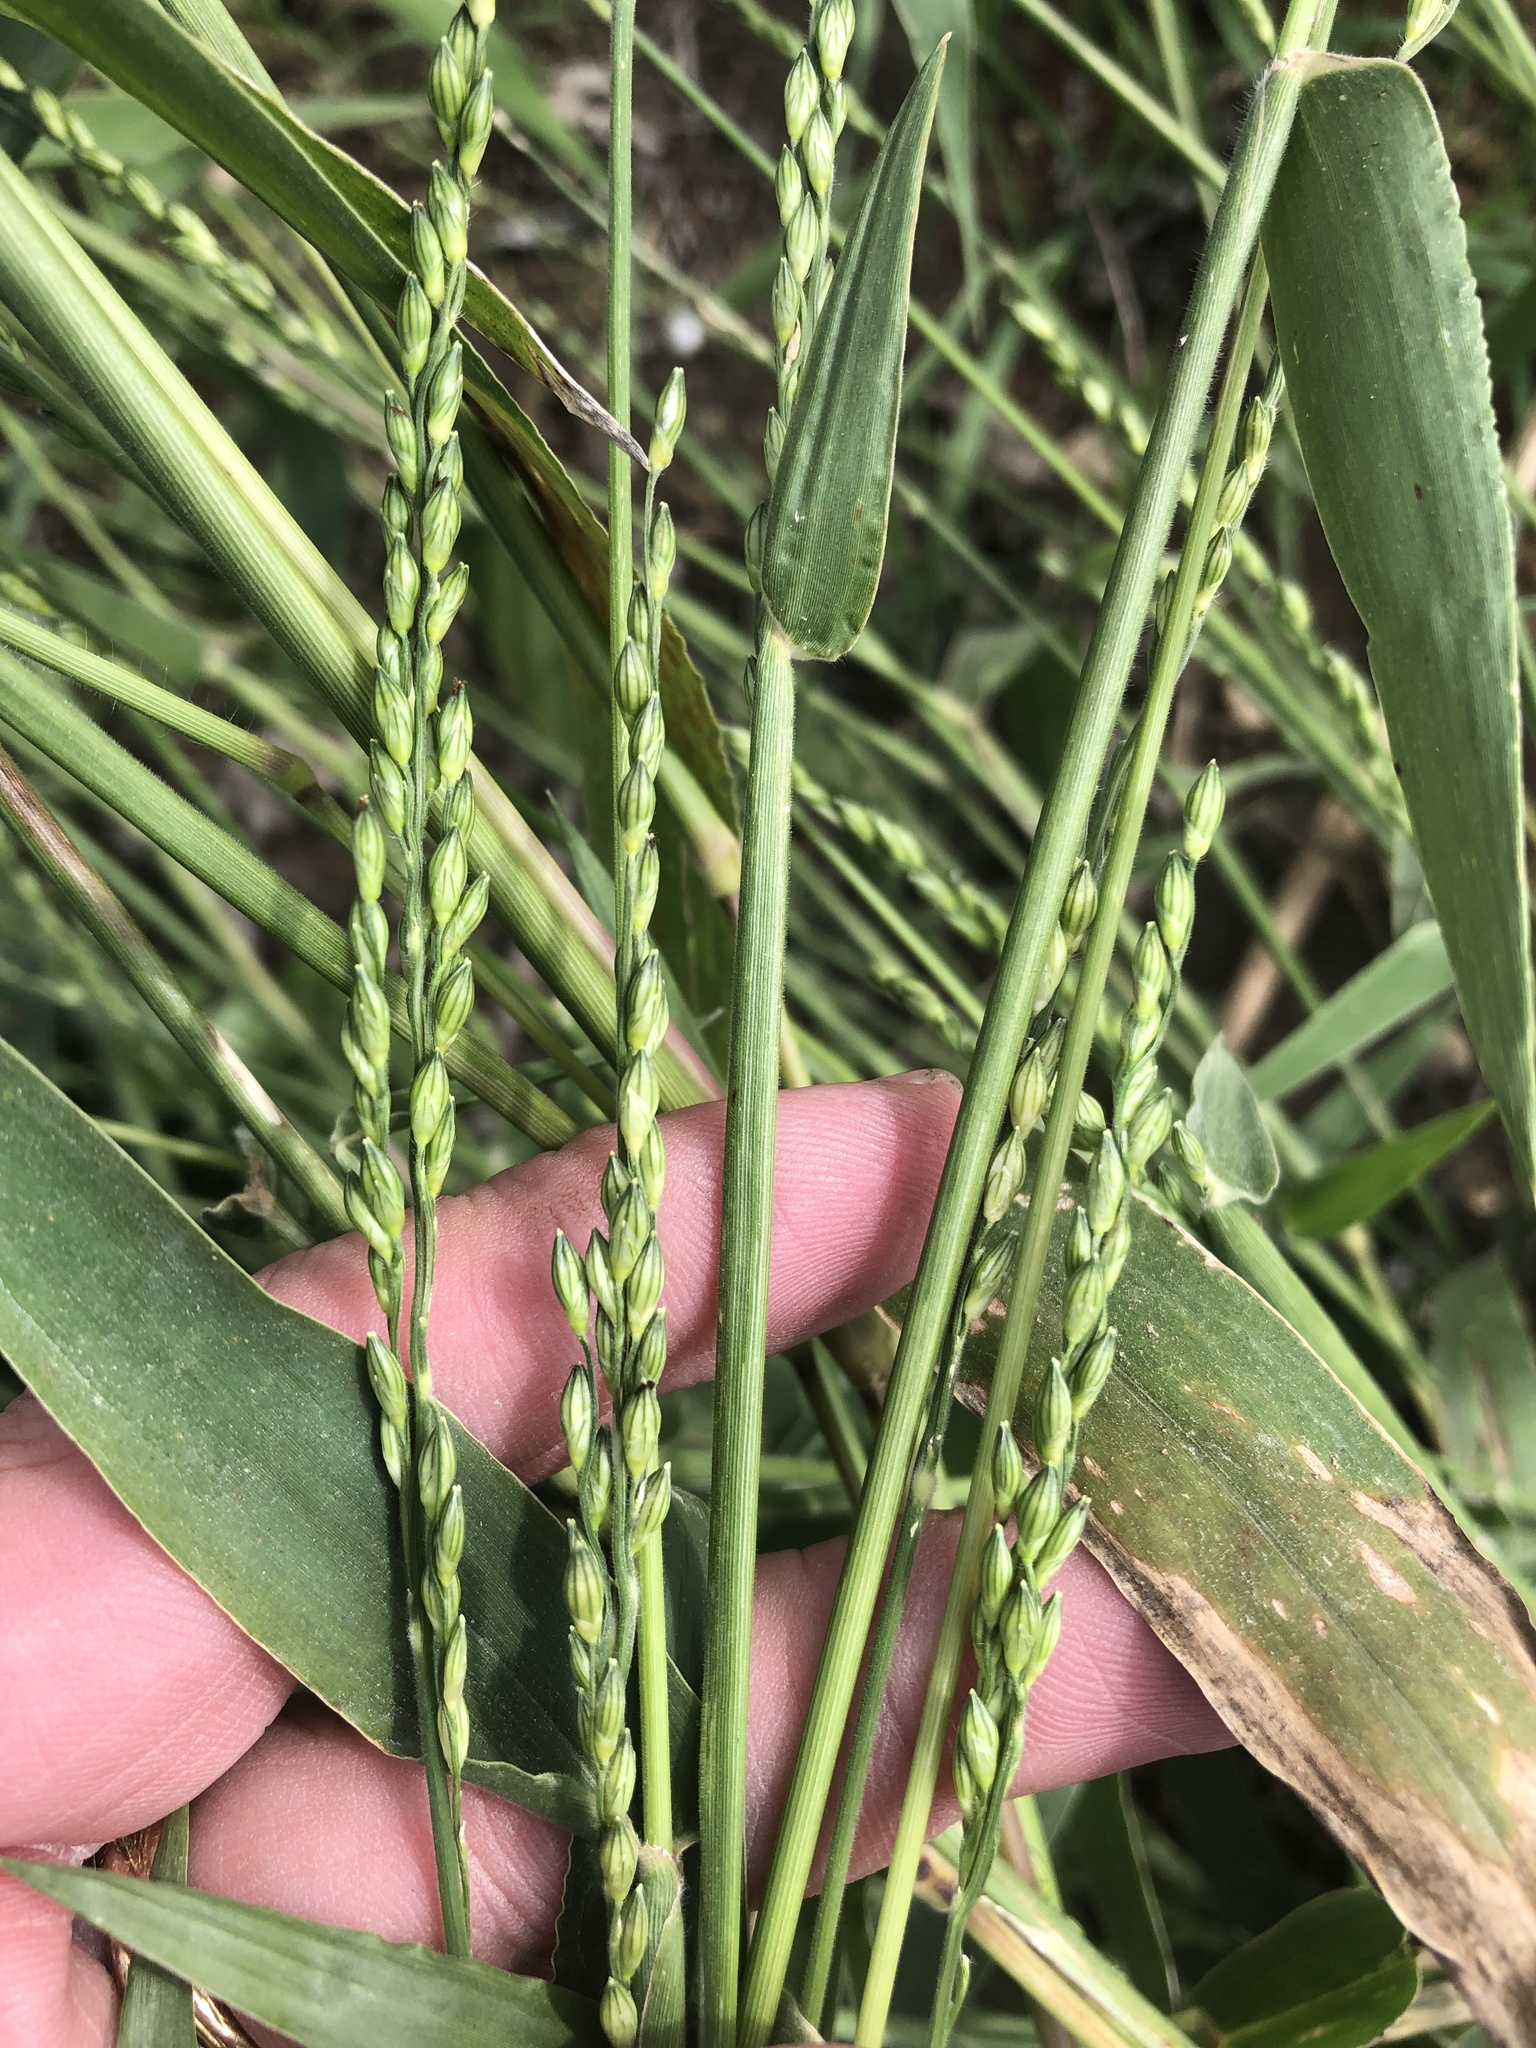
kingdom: Plantae
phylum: Tracheophyta
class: Liliopsida
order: Poales
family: Poaceae
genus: Urochloa
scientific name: Urochloa texana
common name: Texas millet
